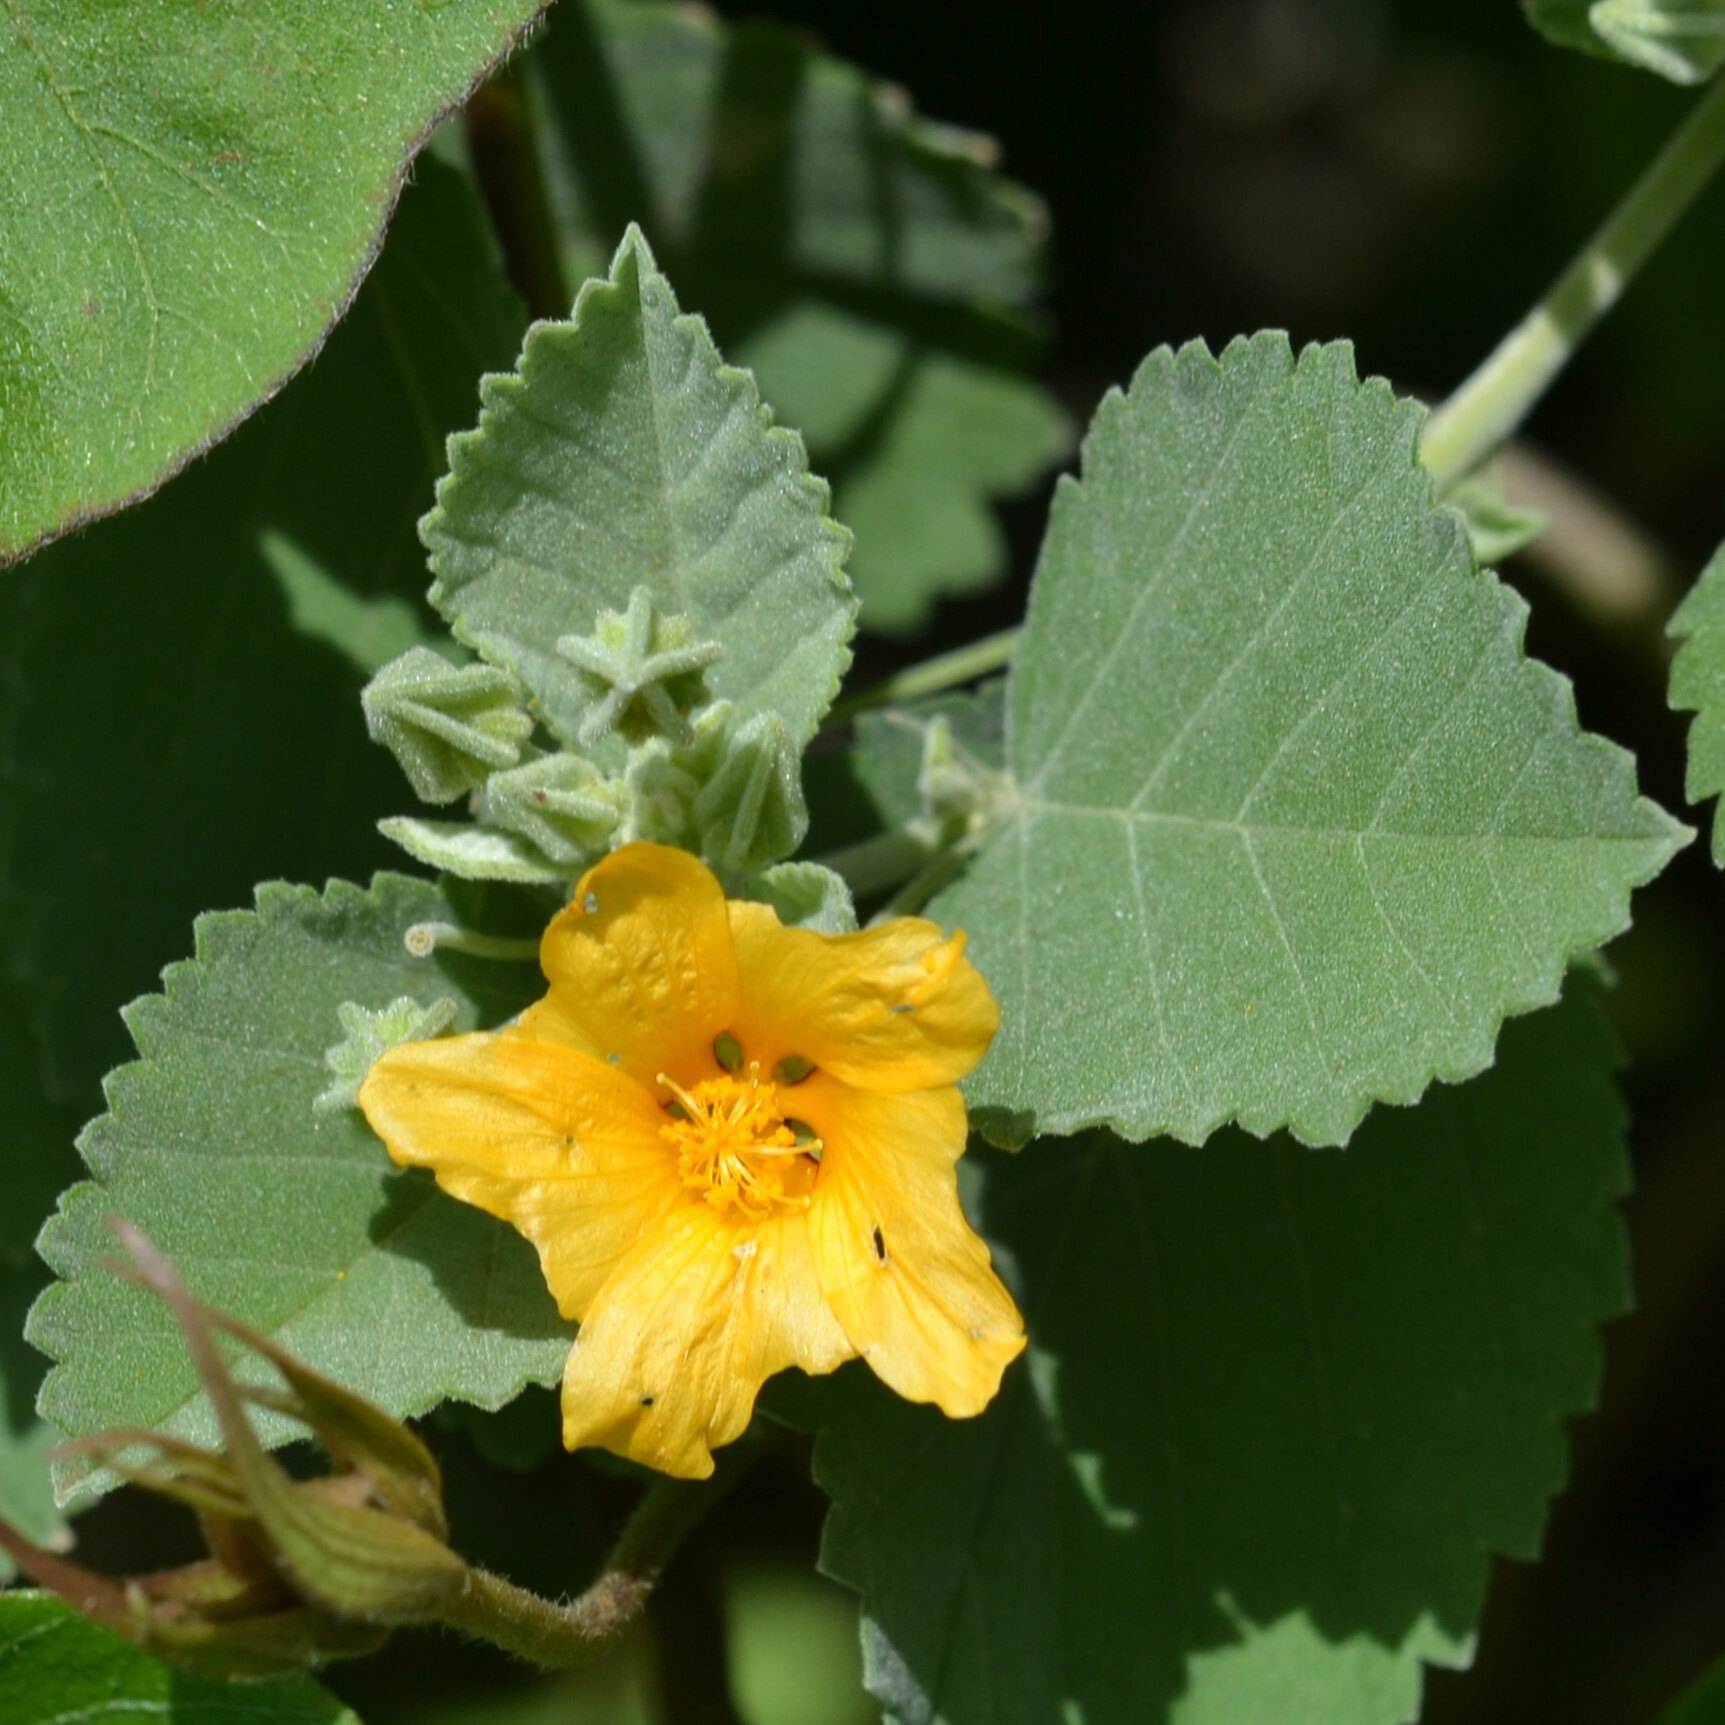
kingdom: Plantae
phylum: Tracheophyta
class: Magnoliopsida
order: Malvales
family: Malvaceae
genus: Sida
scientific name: Sida fallax
